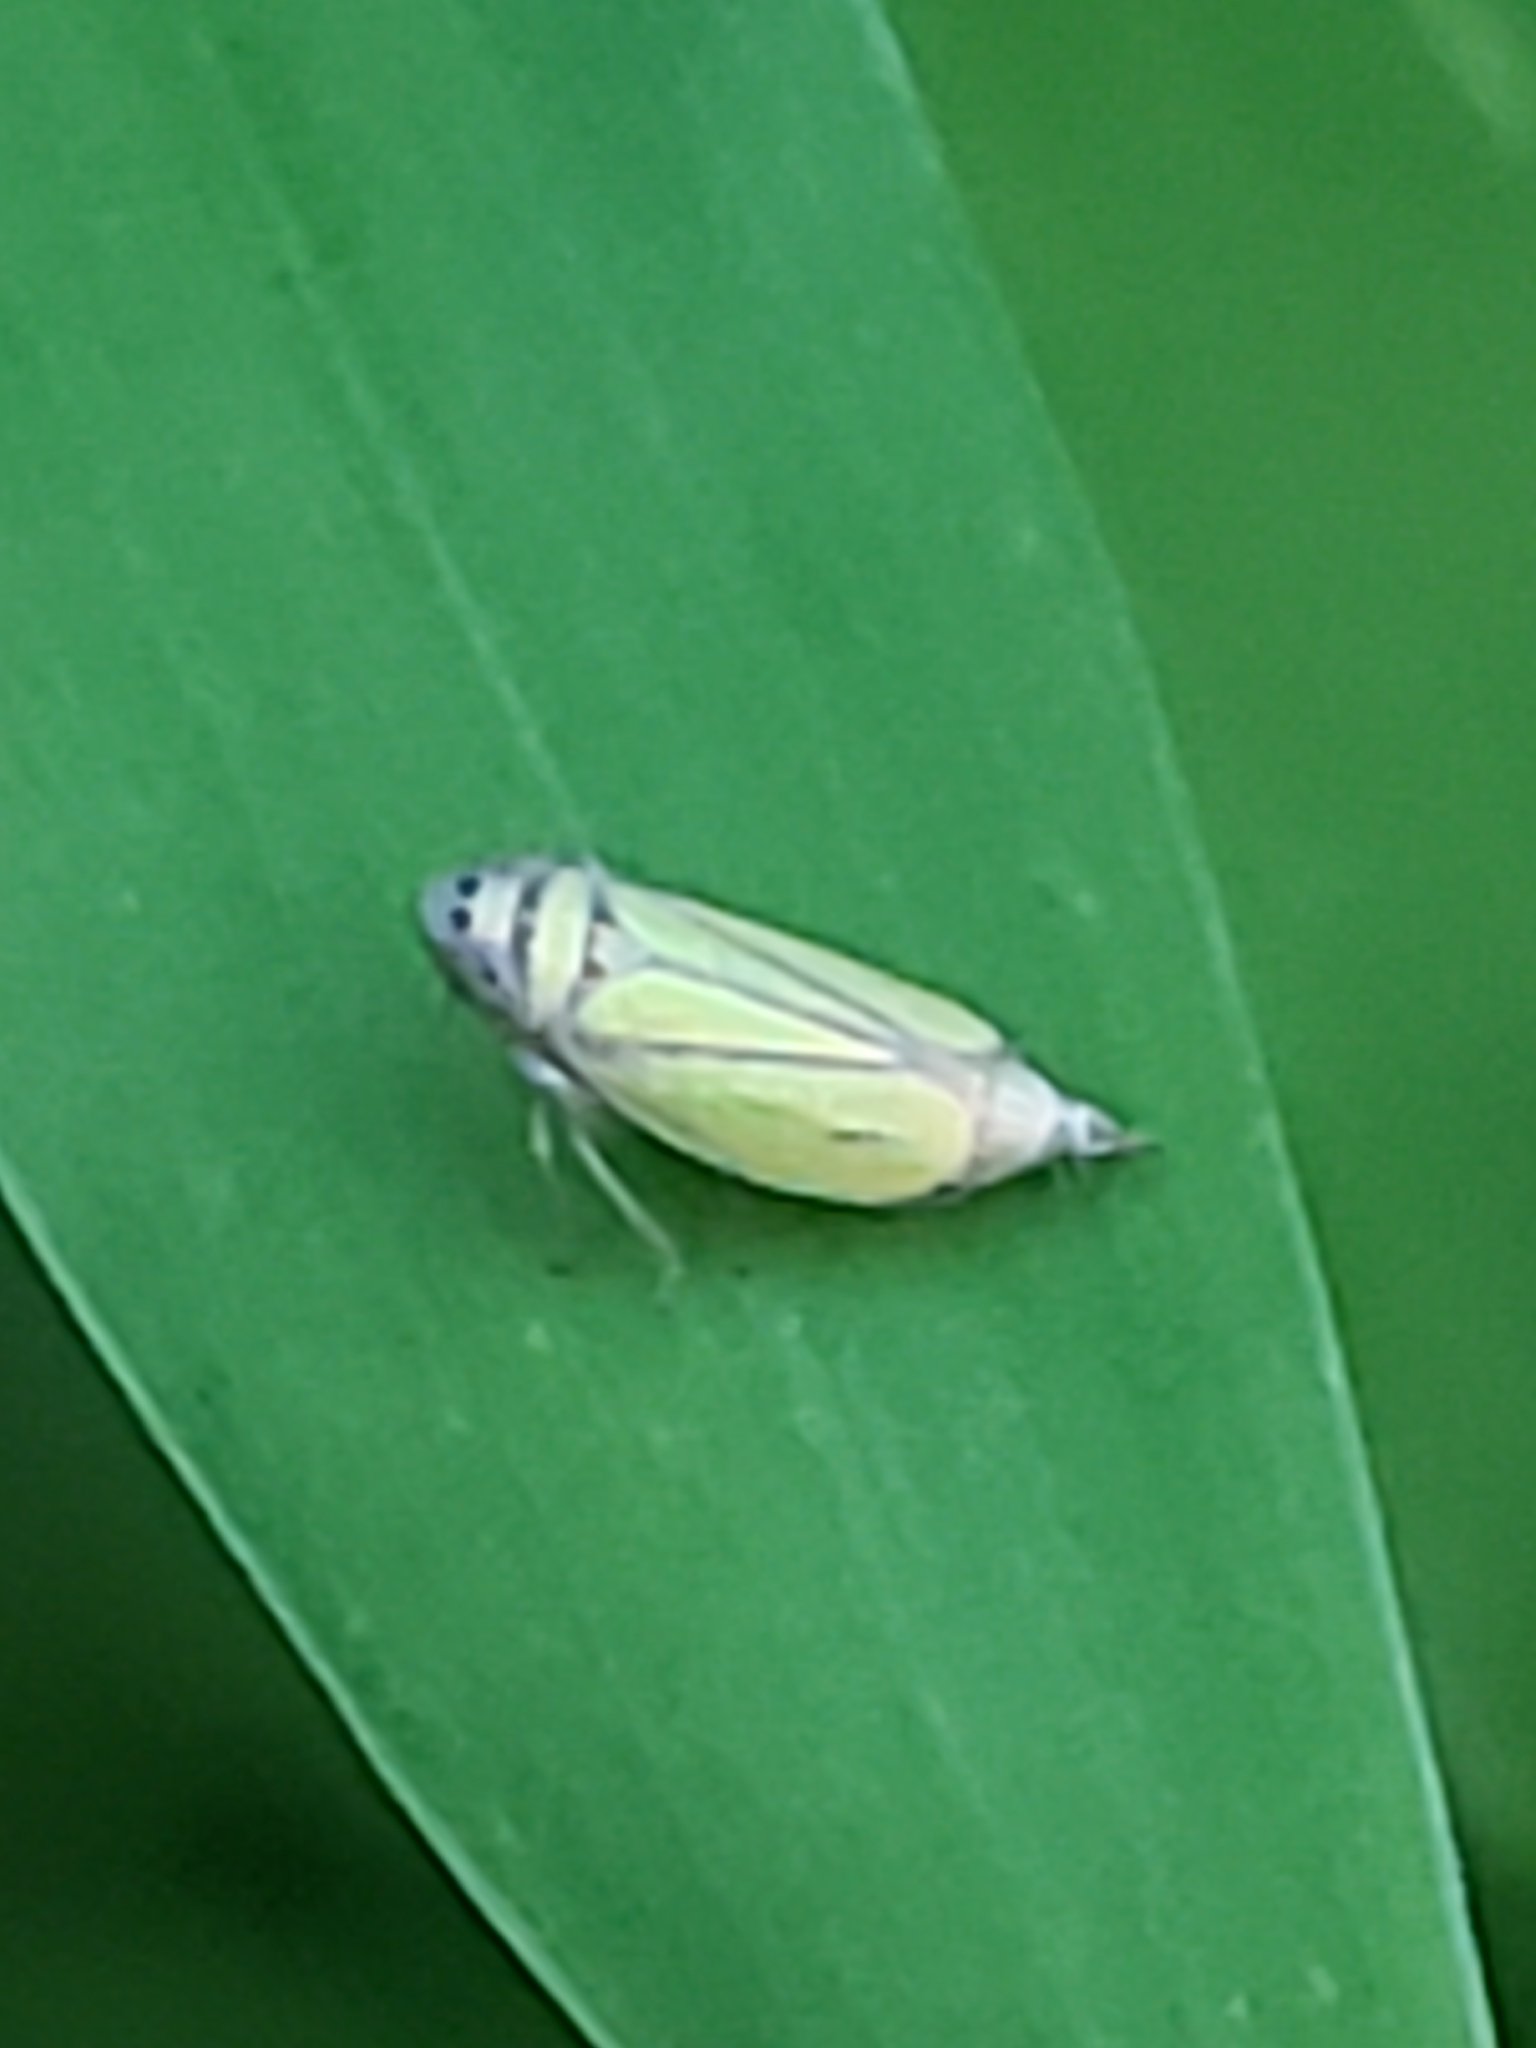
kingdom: Animalia
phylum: Arthropoda
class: Insecta
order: Hemiptera
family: Cicadellidae
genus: Stirellus
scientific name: Stirellus bicolor
